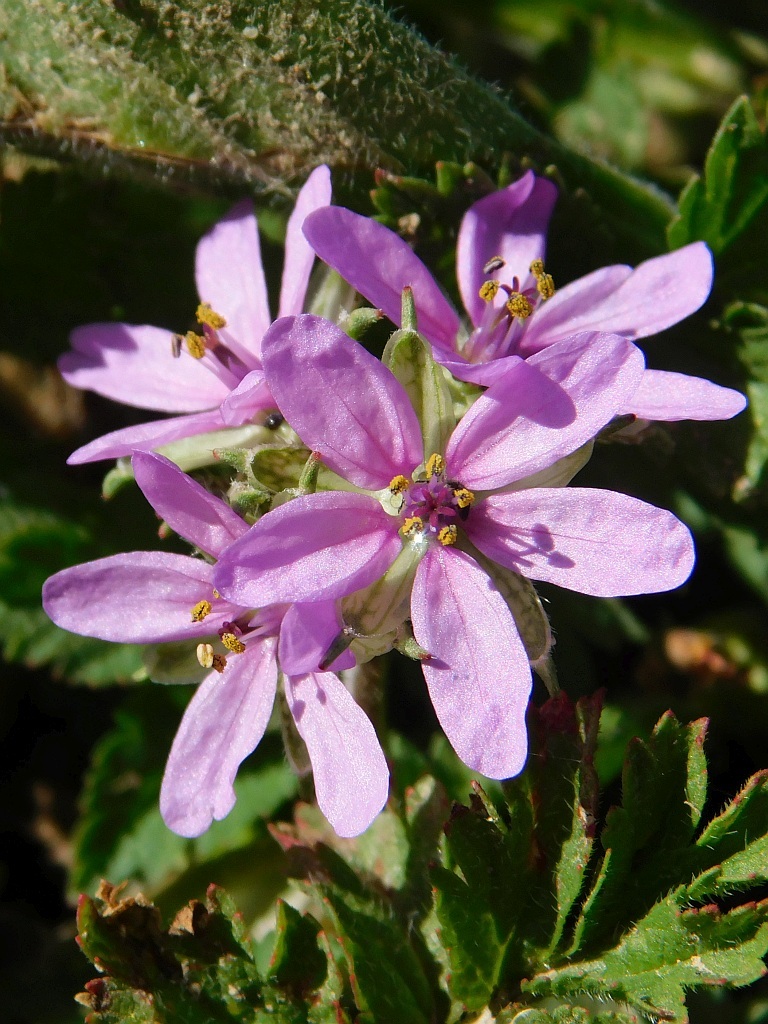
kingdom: Plantae
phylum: Tracheophyta
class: Magnoliopsida
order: Geraniales
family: Geraniaceae
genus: Erodium
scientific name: Erodium moschatum
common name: Musk stork's-bill
